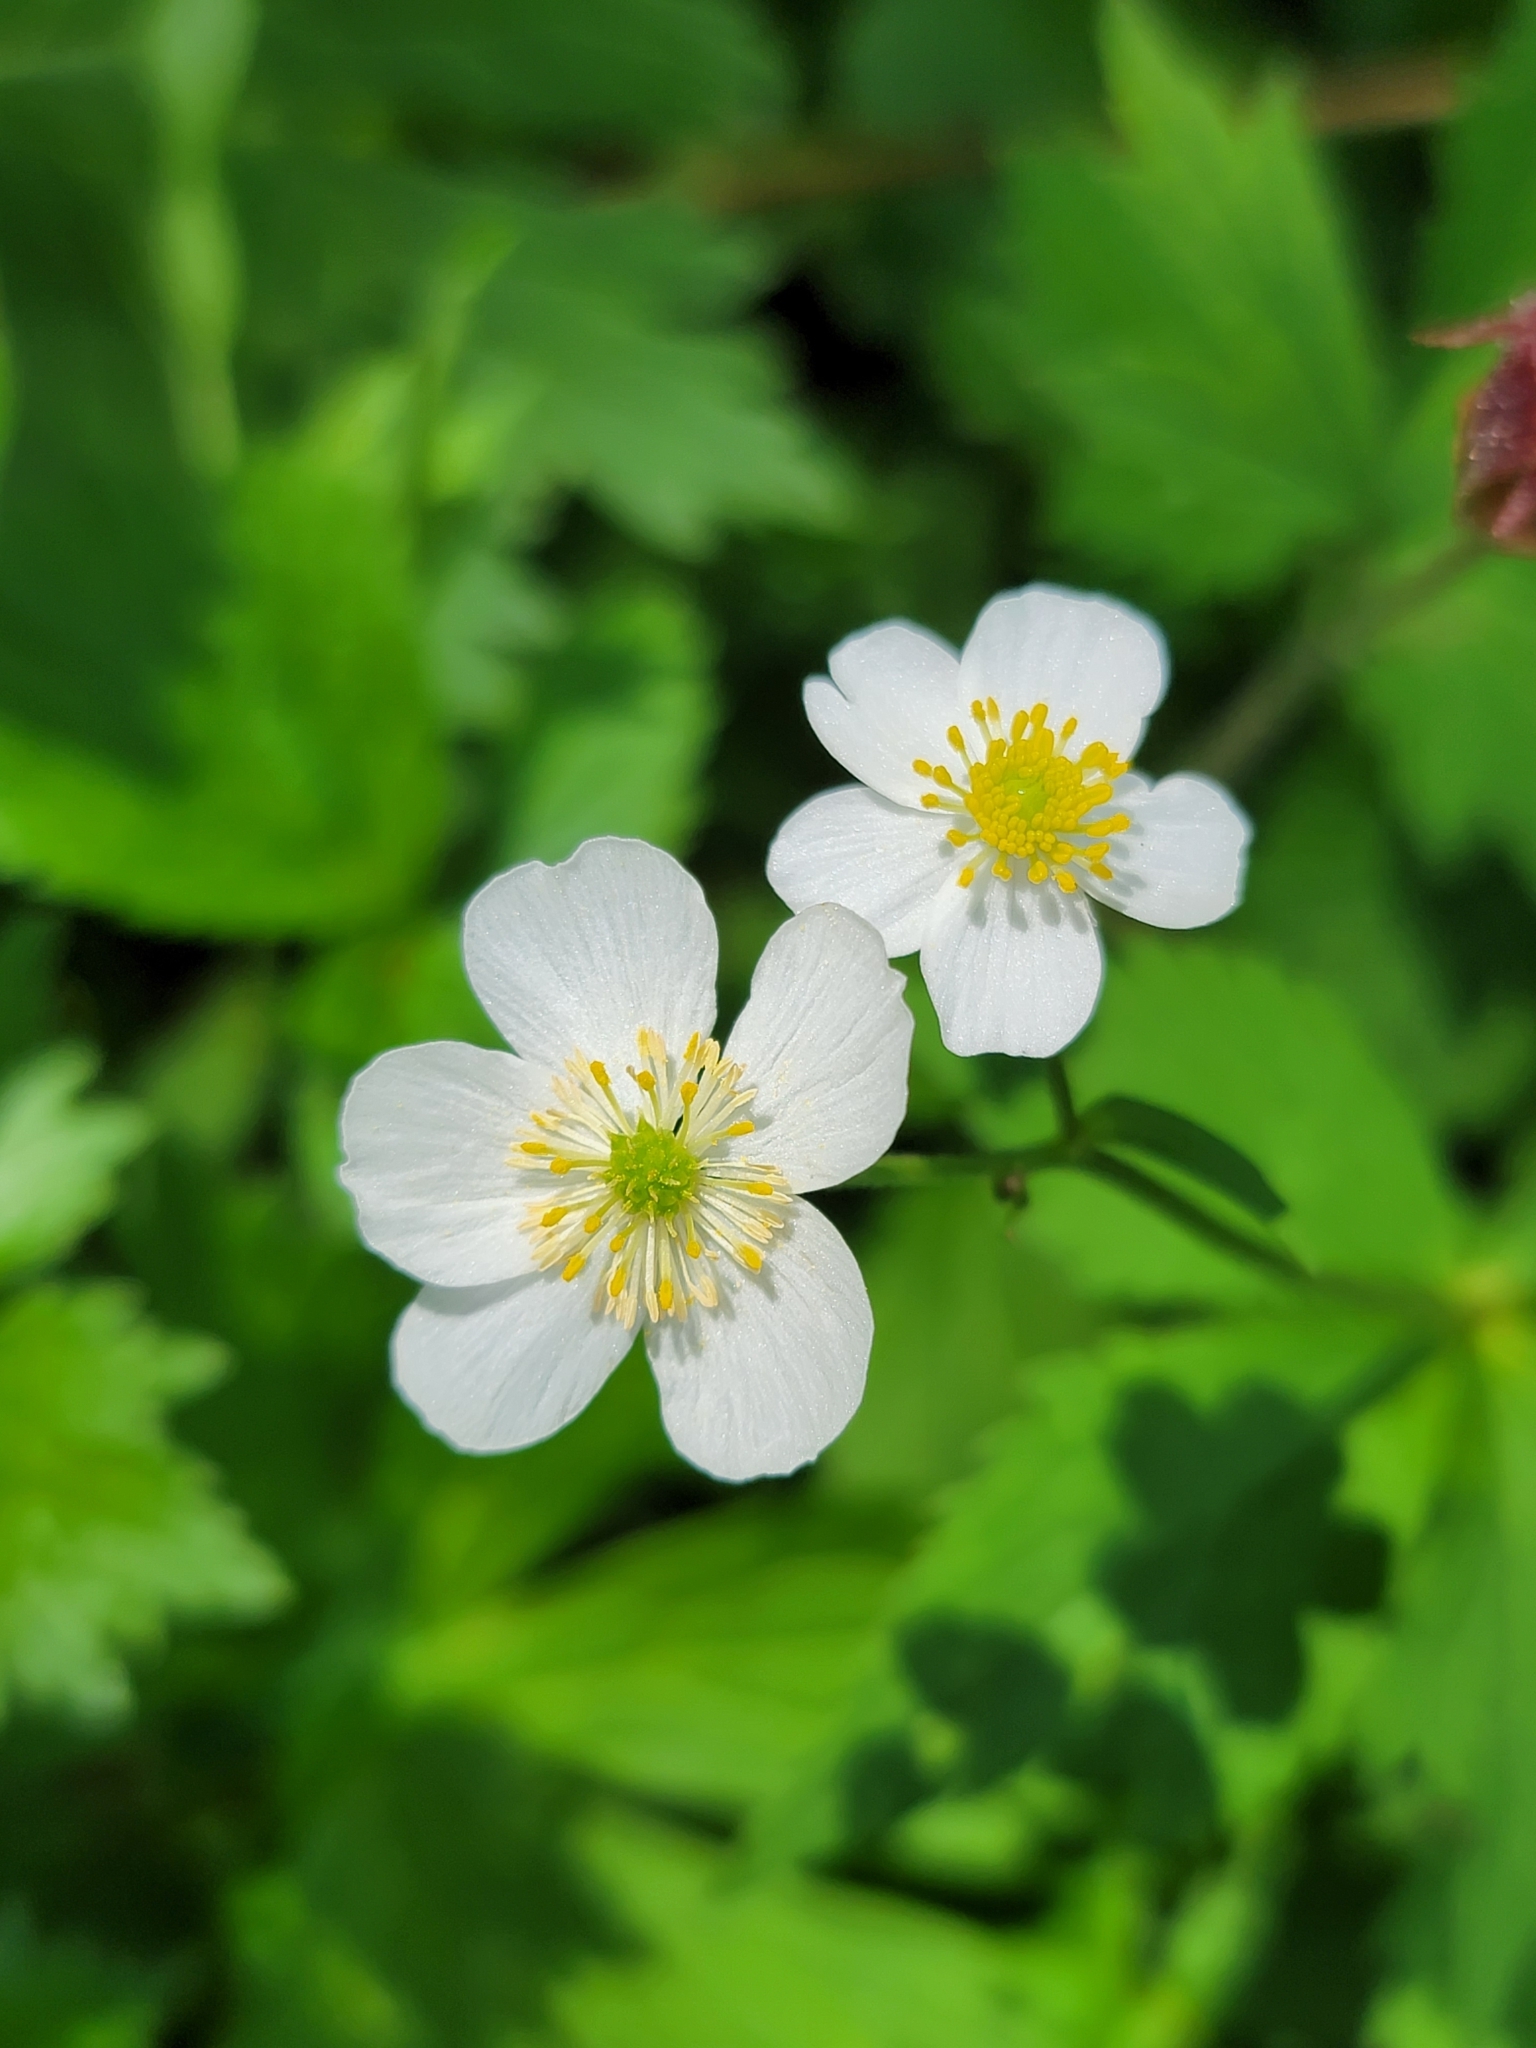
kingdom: Plantae
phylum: Tracheophyta
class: Magnoliopsida
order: Ranunculales
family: Ranunculaceae
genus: Ranunculus
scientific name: Ranunculus aconitifolius
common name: Aconite-leaved buttercup
